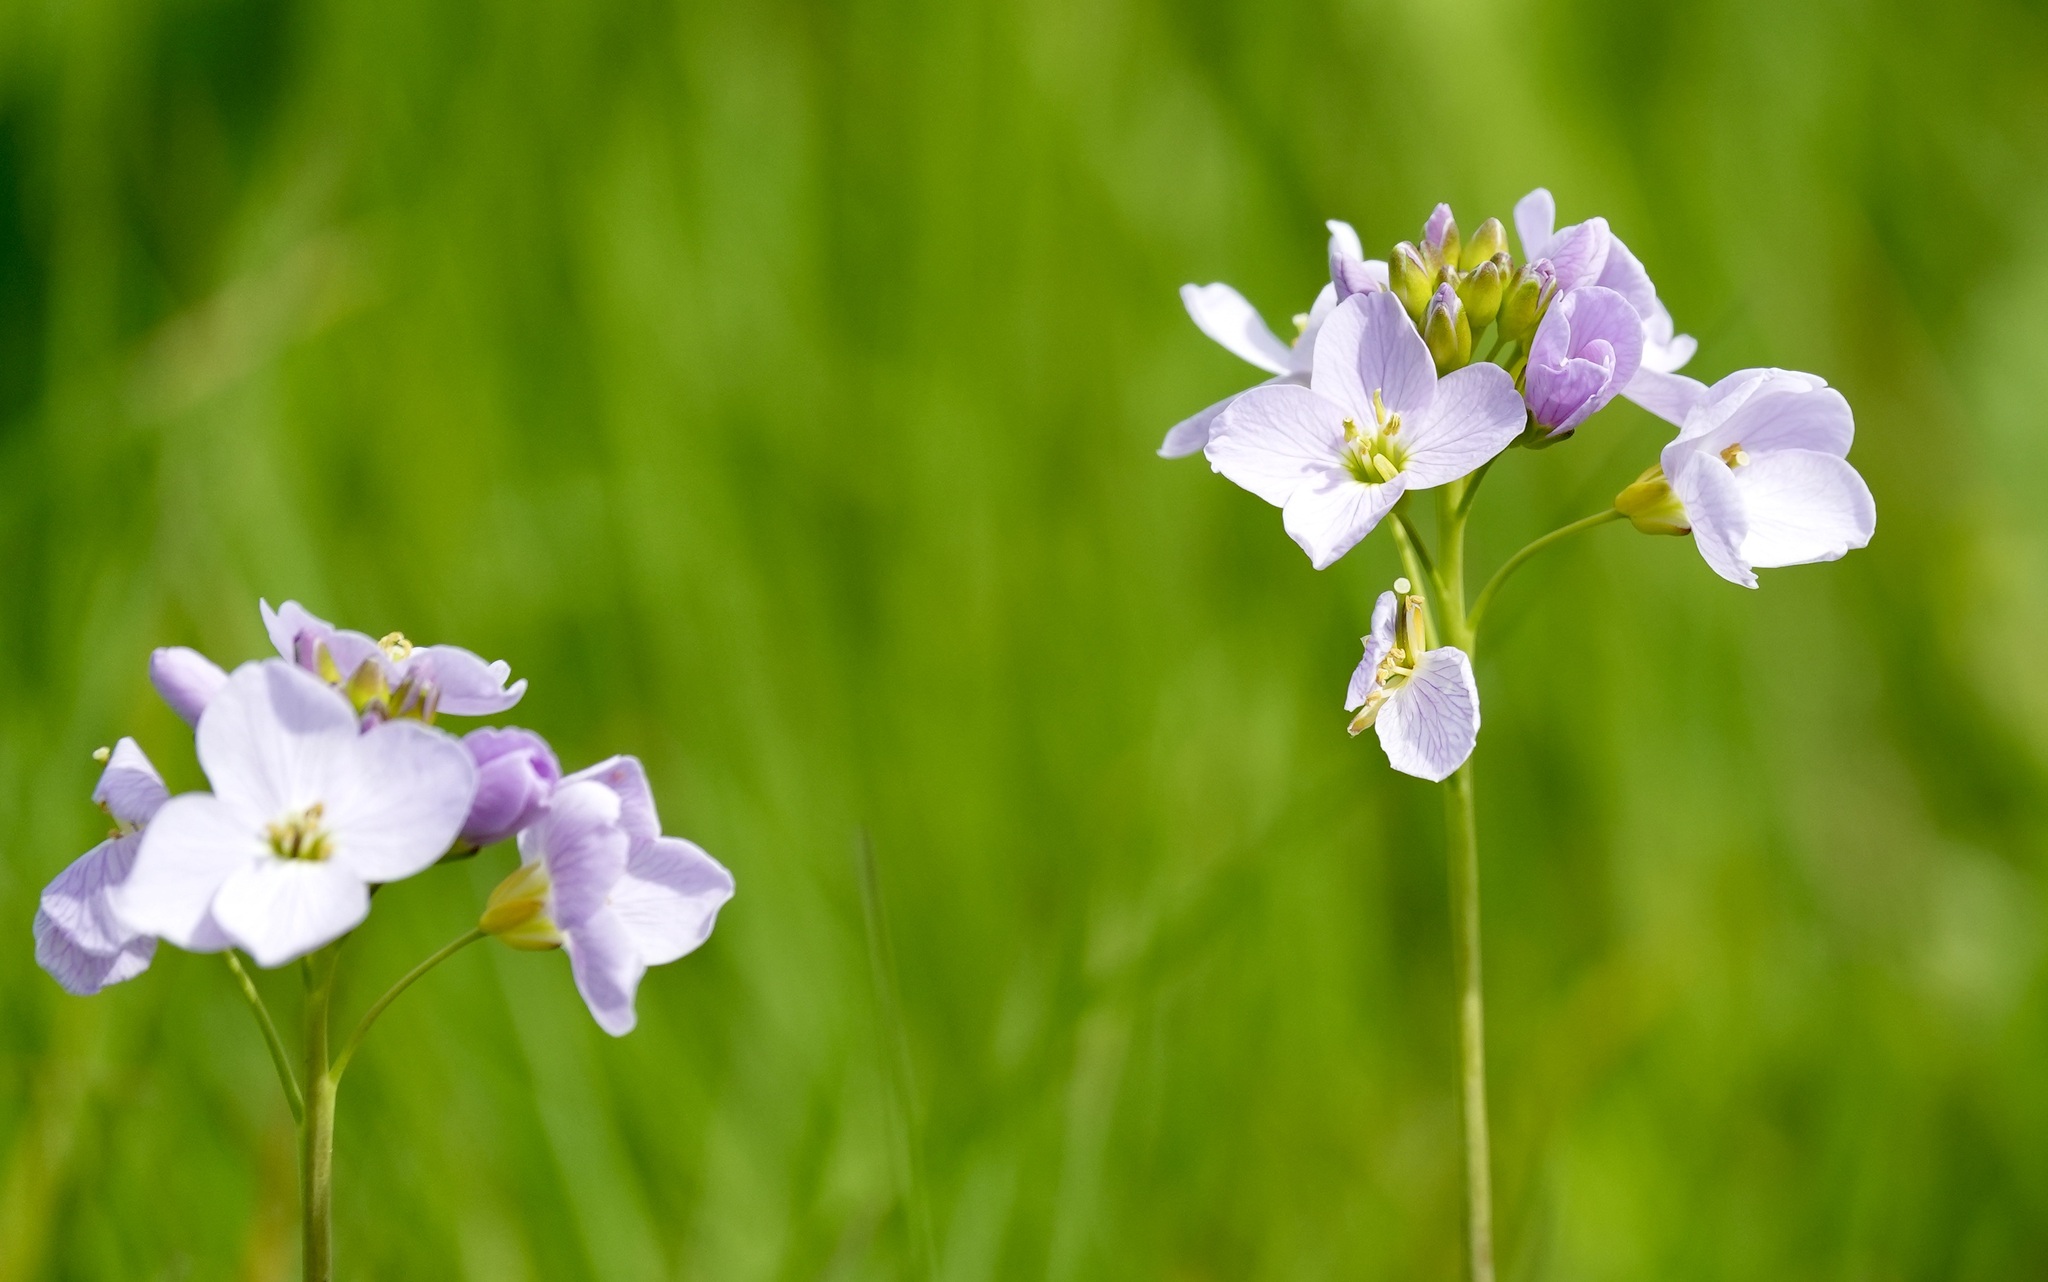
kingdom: Plantae
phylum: Tracheophyta
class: Magnoliopsida
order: Brassicales
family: Brassicaceae
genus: Cardamine
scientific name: Cardamine pratensis
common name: Cuckoo flower
